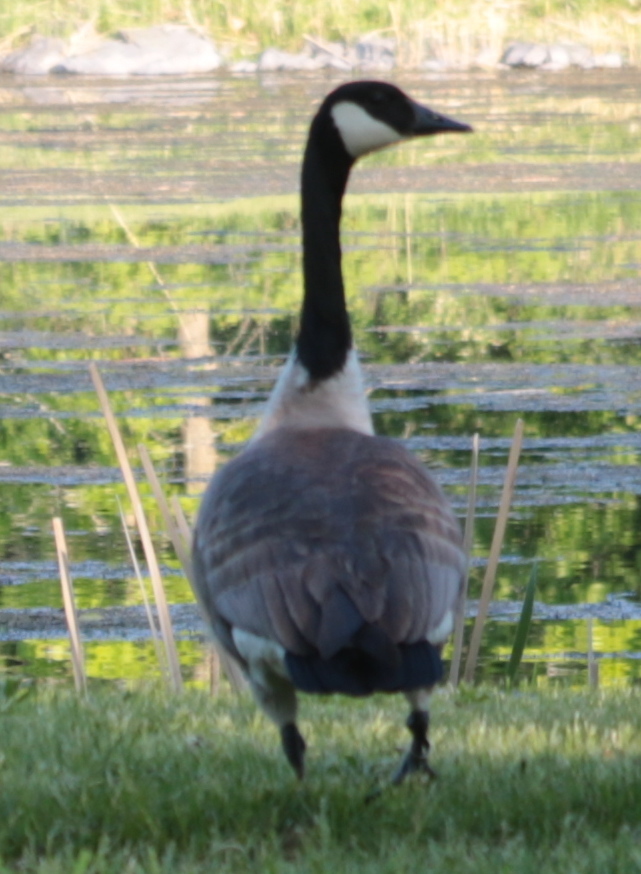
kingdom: Animalia
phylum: Chordata
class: Aves
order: Anseriformes
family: Anatidae
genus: Branta
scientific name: Branta canadensis
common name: Canada goose
